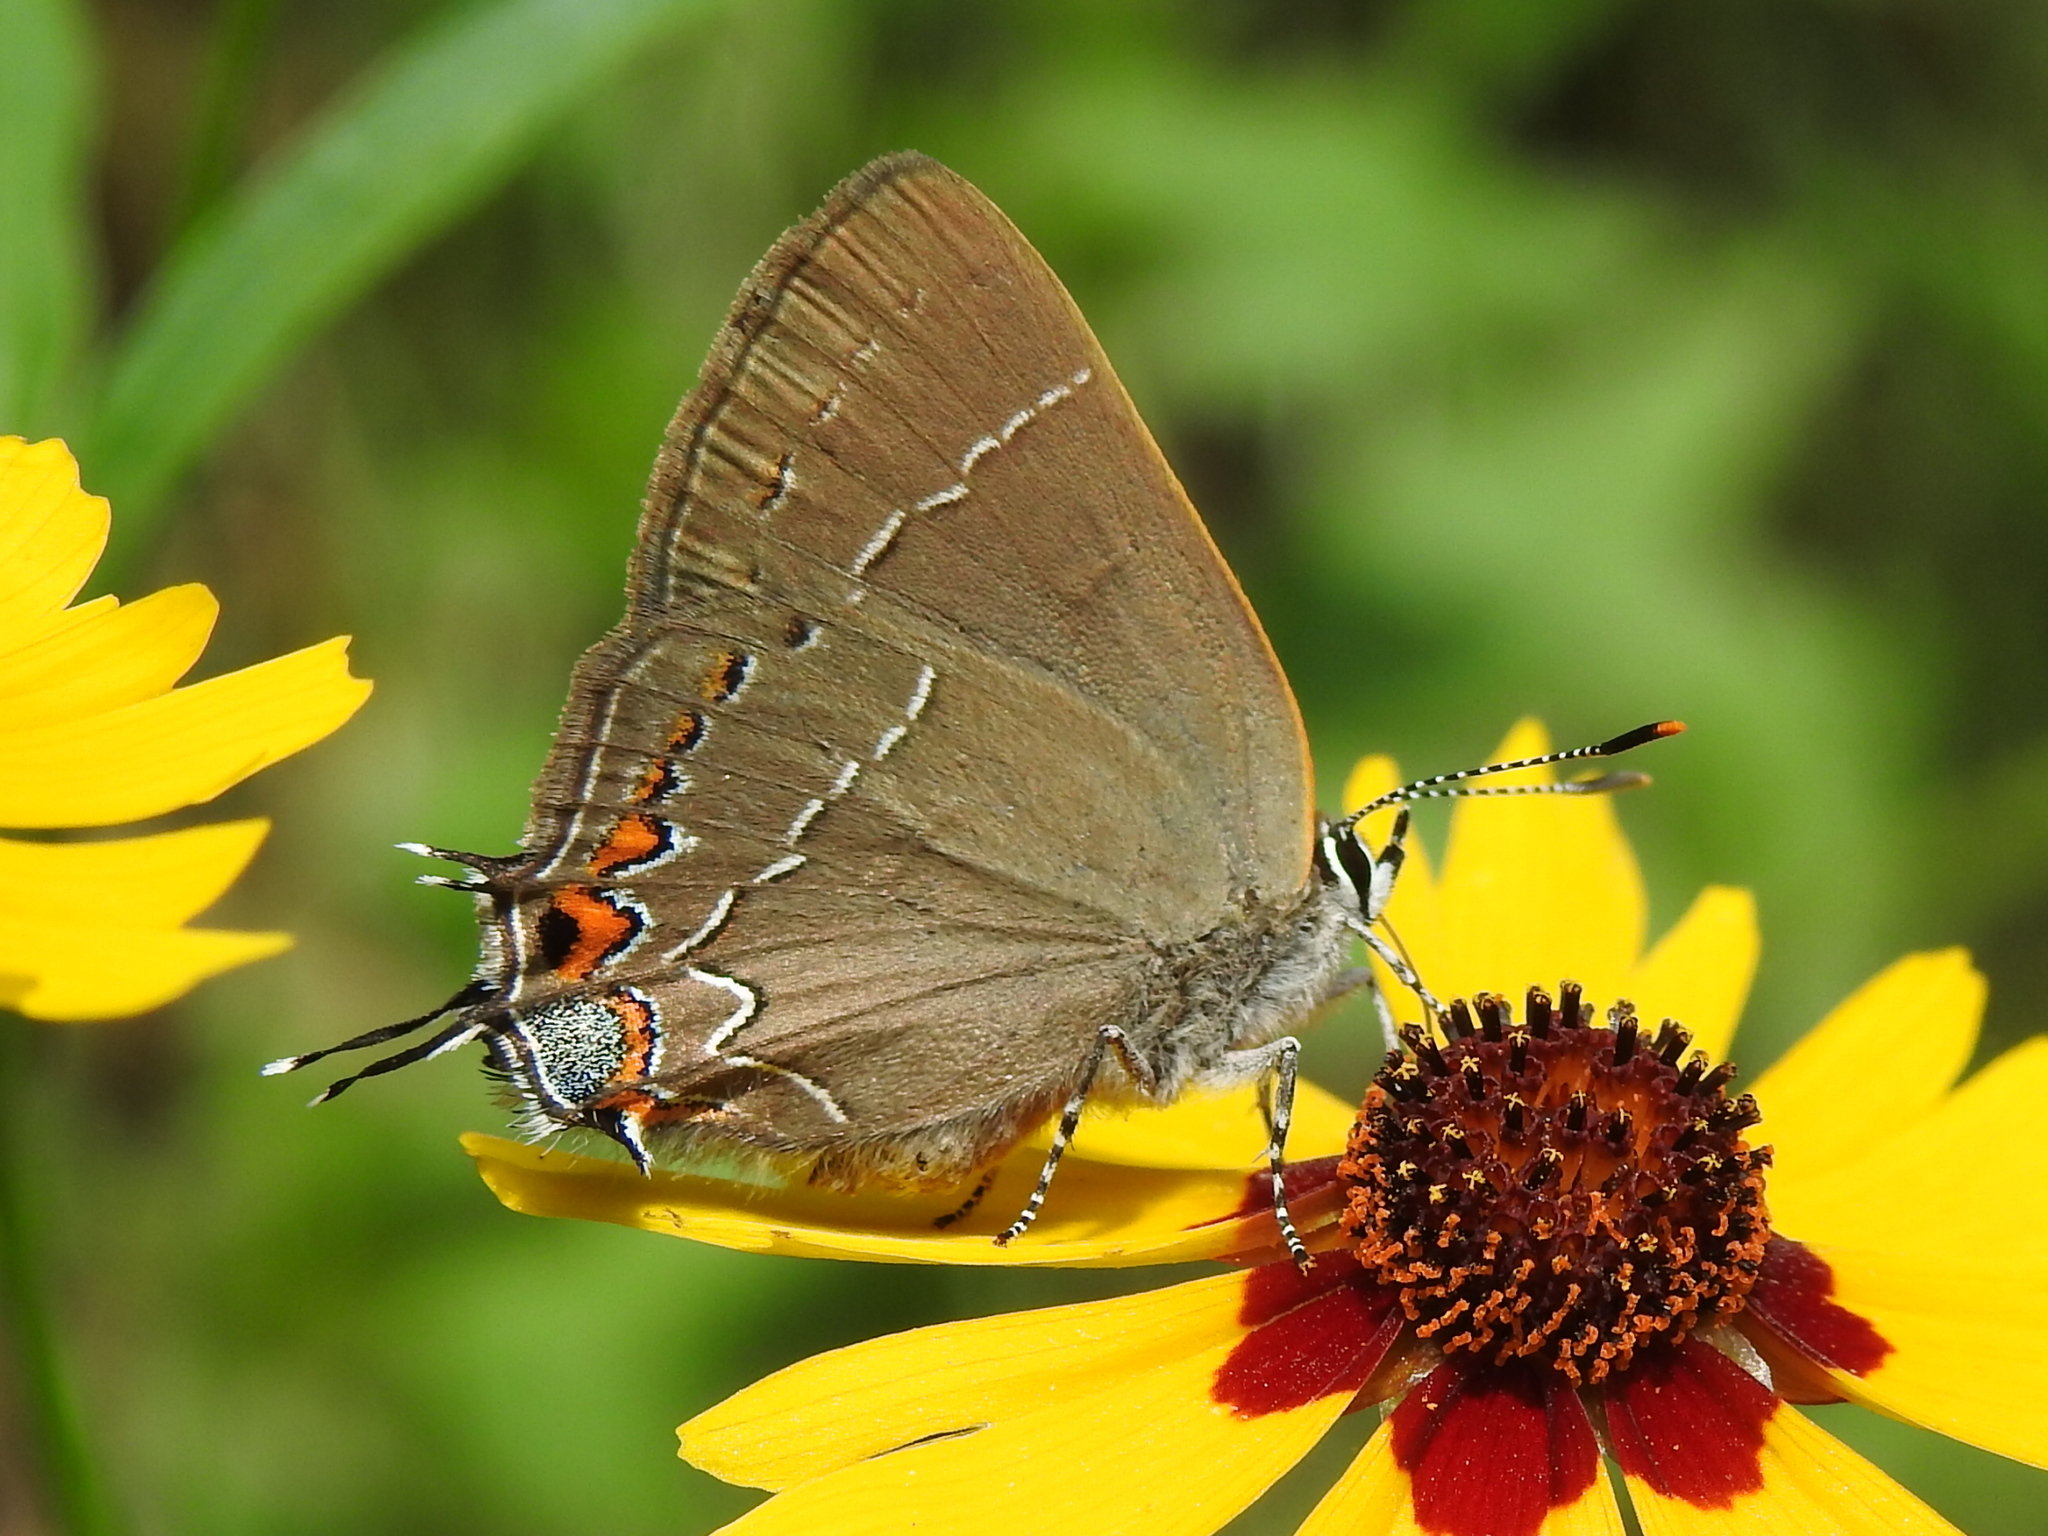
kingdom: Animalia
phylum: Arthropoda
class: Insecta
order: Lepidoptera
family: Lycaenidae
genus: Thecla
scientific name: Thecla autolycus
